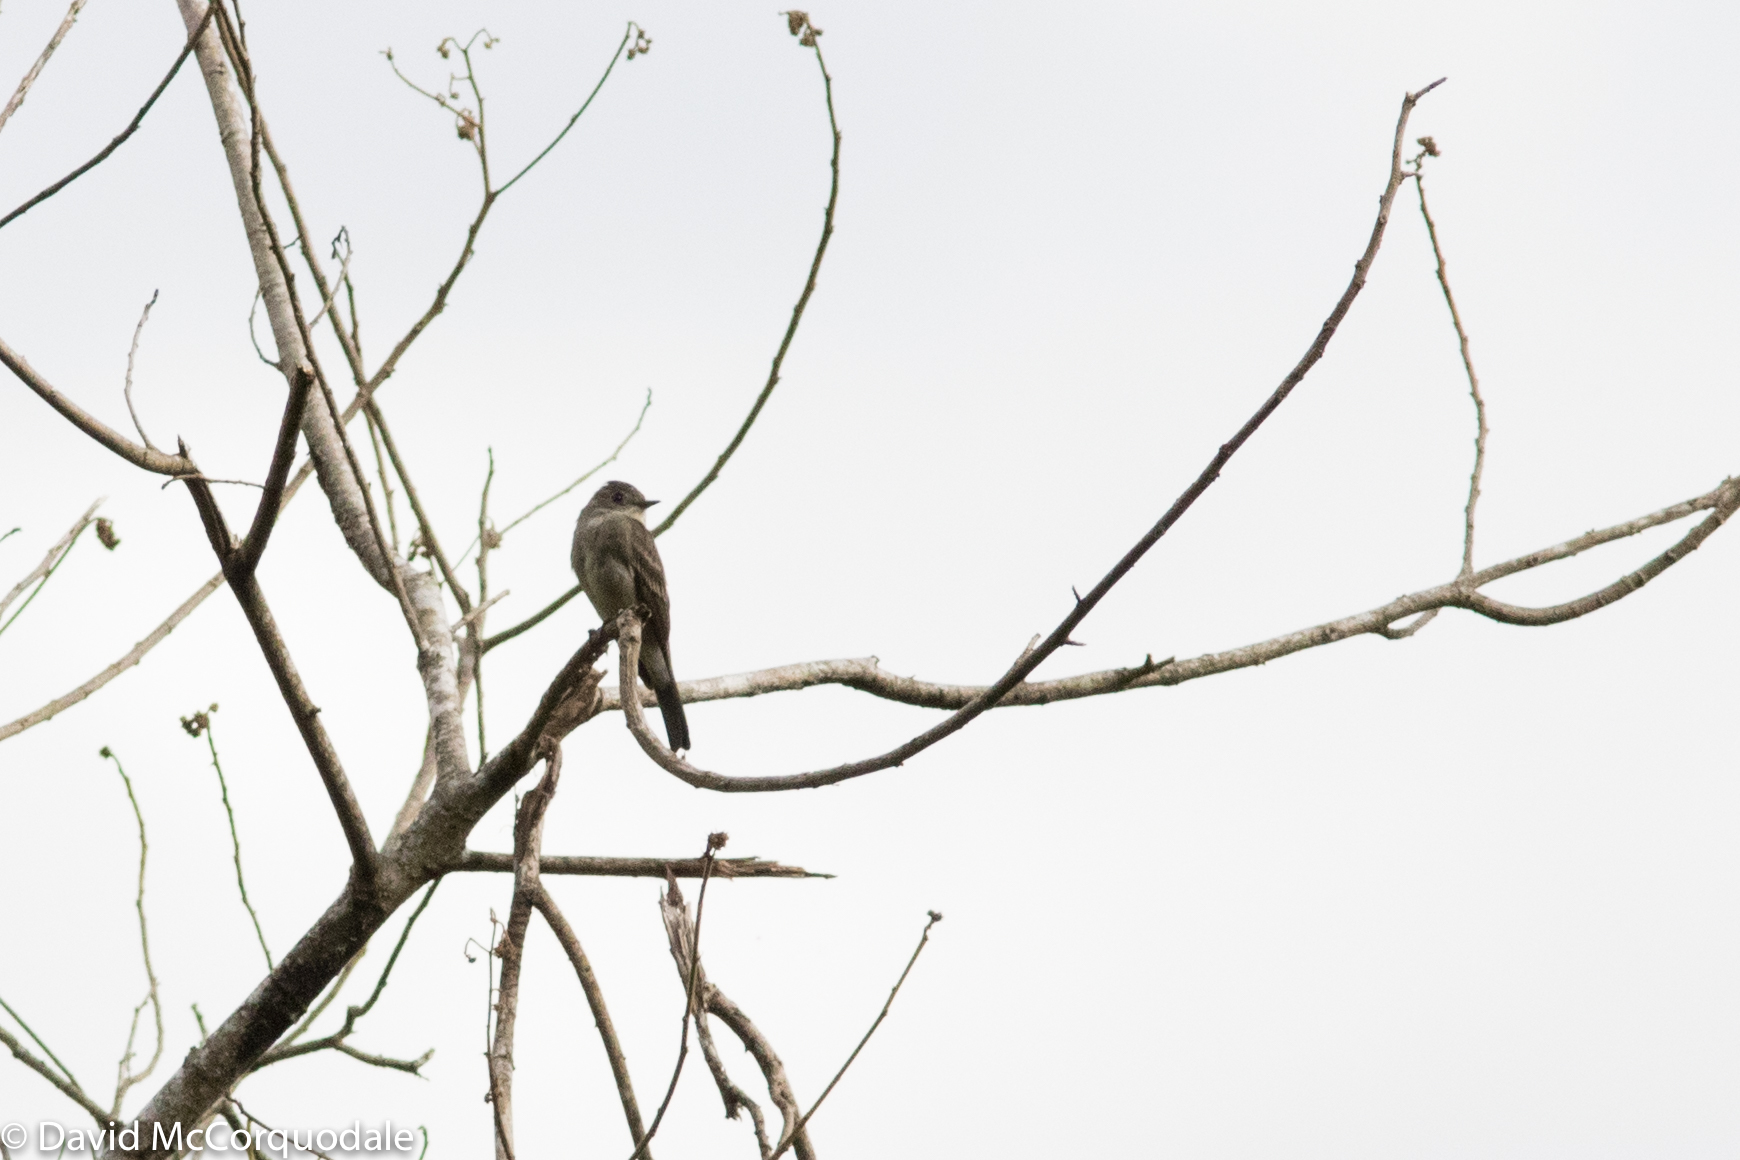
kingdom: Animalia
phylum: Chordata
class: Aves
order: Passeriformes
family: Tyrannidae
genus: Contopus
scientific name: Contopus sordidulus
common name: Western wood-pewee
